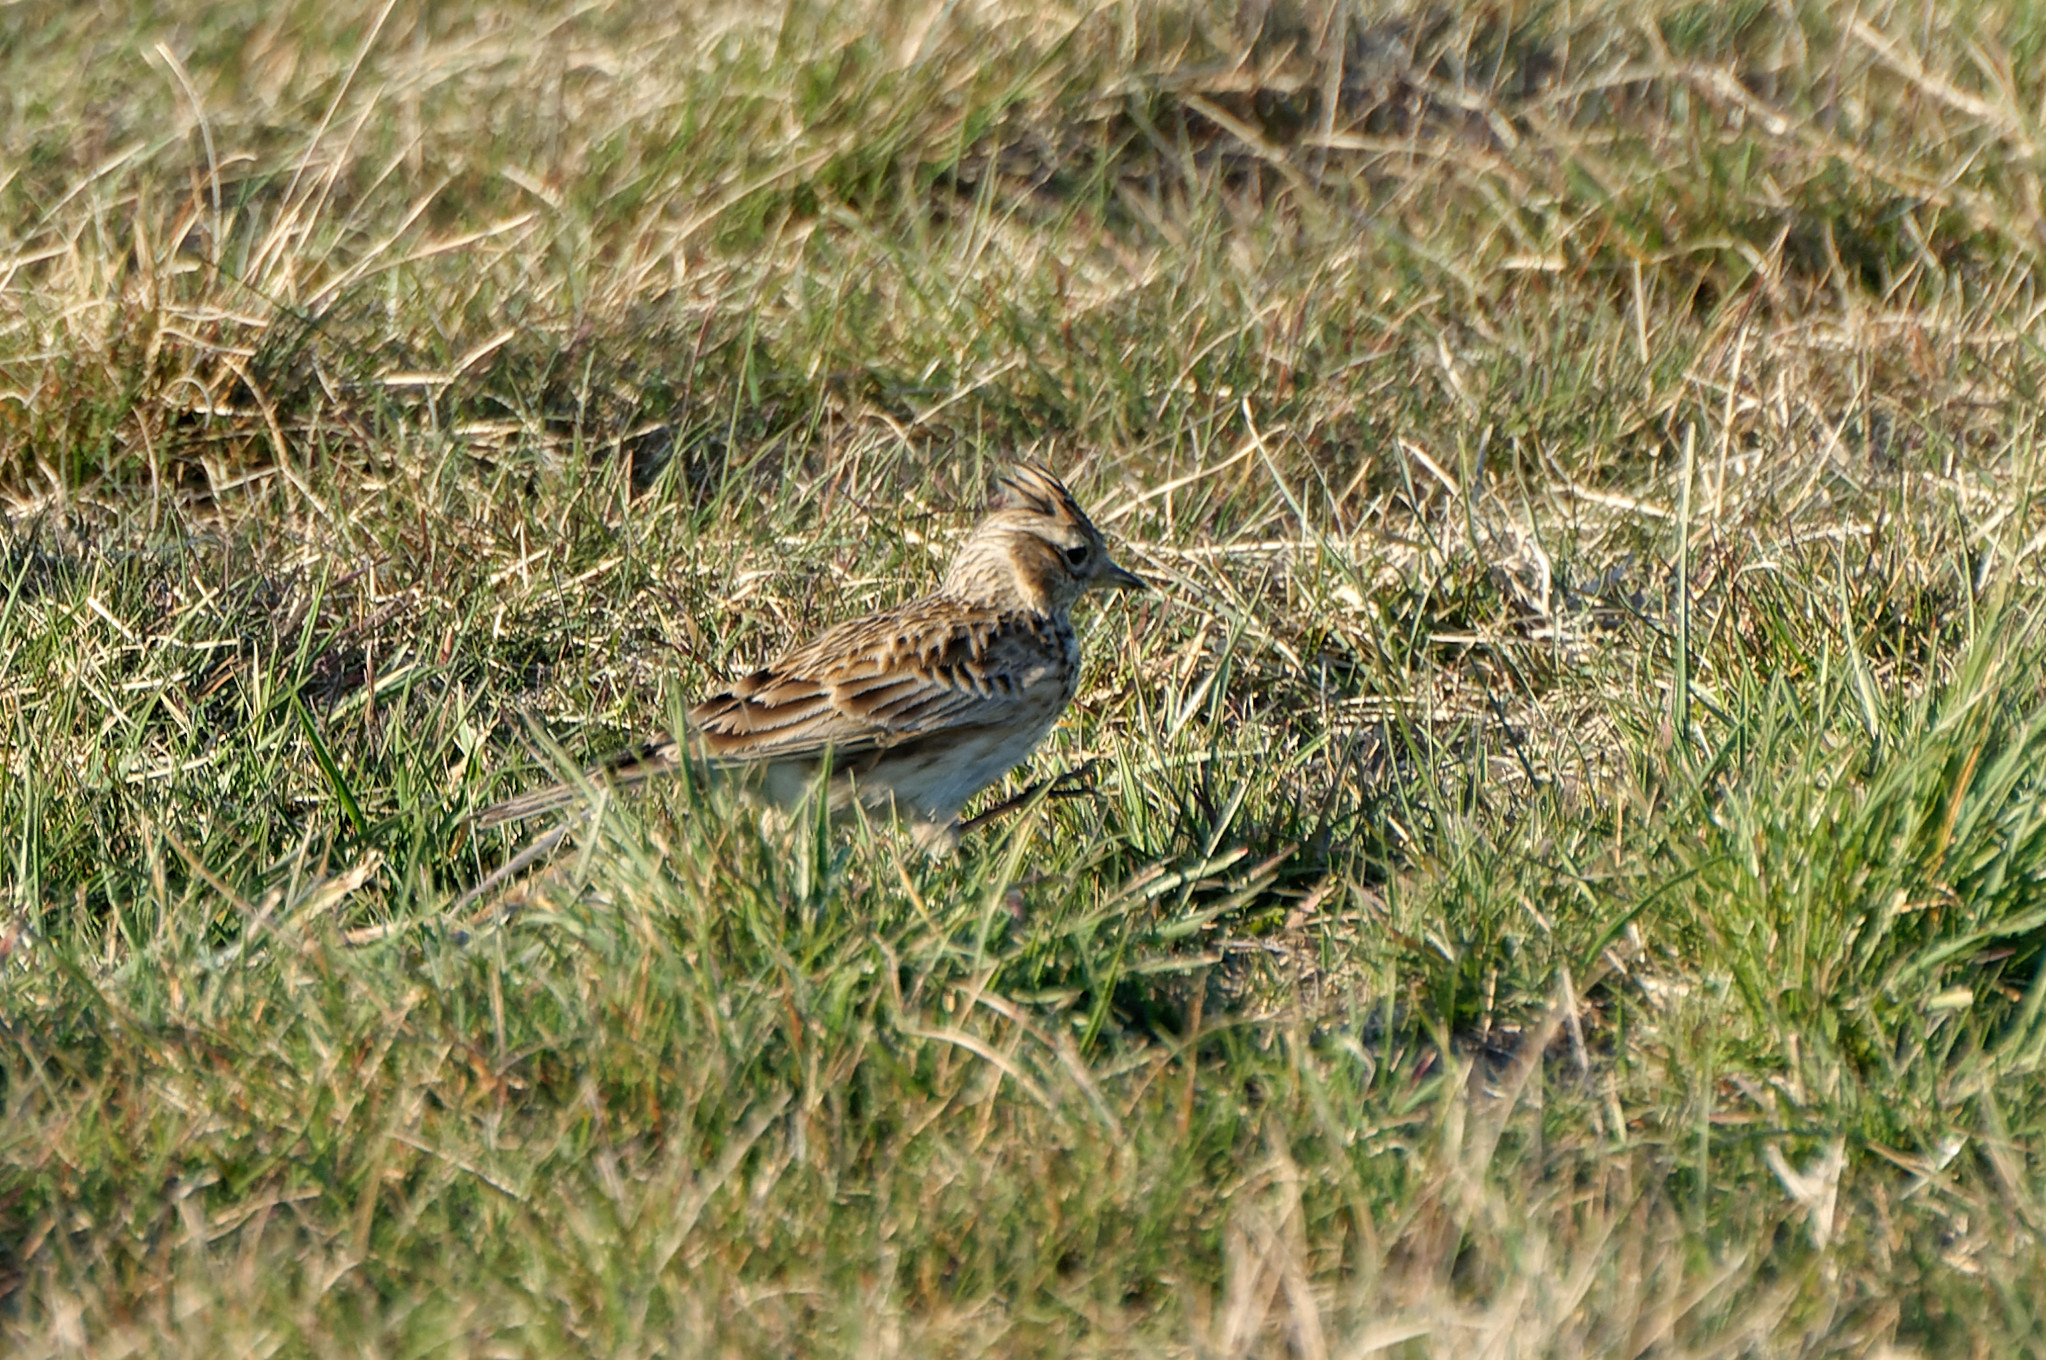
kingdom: Animalia
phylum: Chordata
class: Aves
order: Passeriformes
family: Alaudidae
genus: Alauda
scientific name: Alauda arvensis
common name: Eurasian skylark
